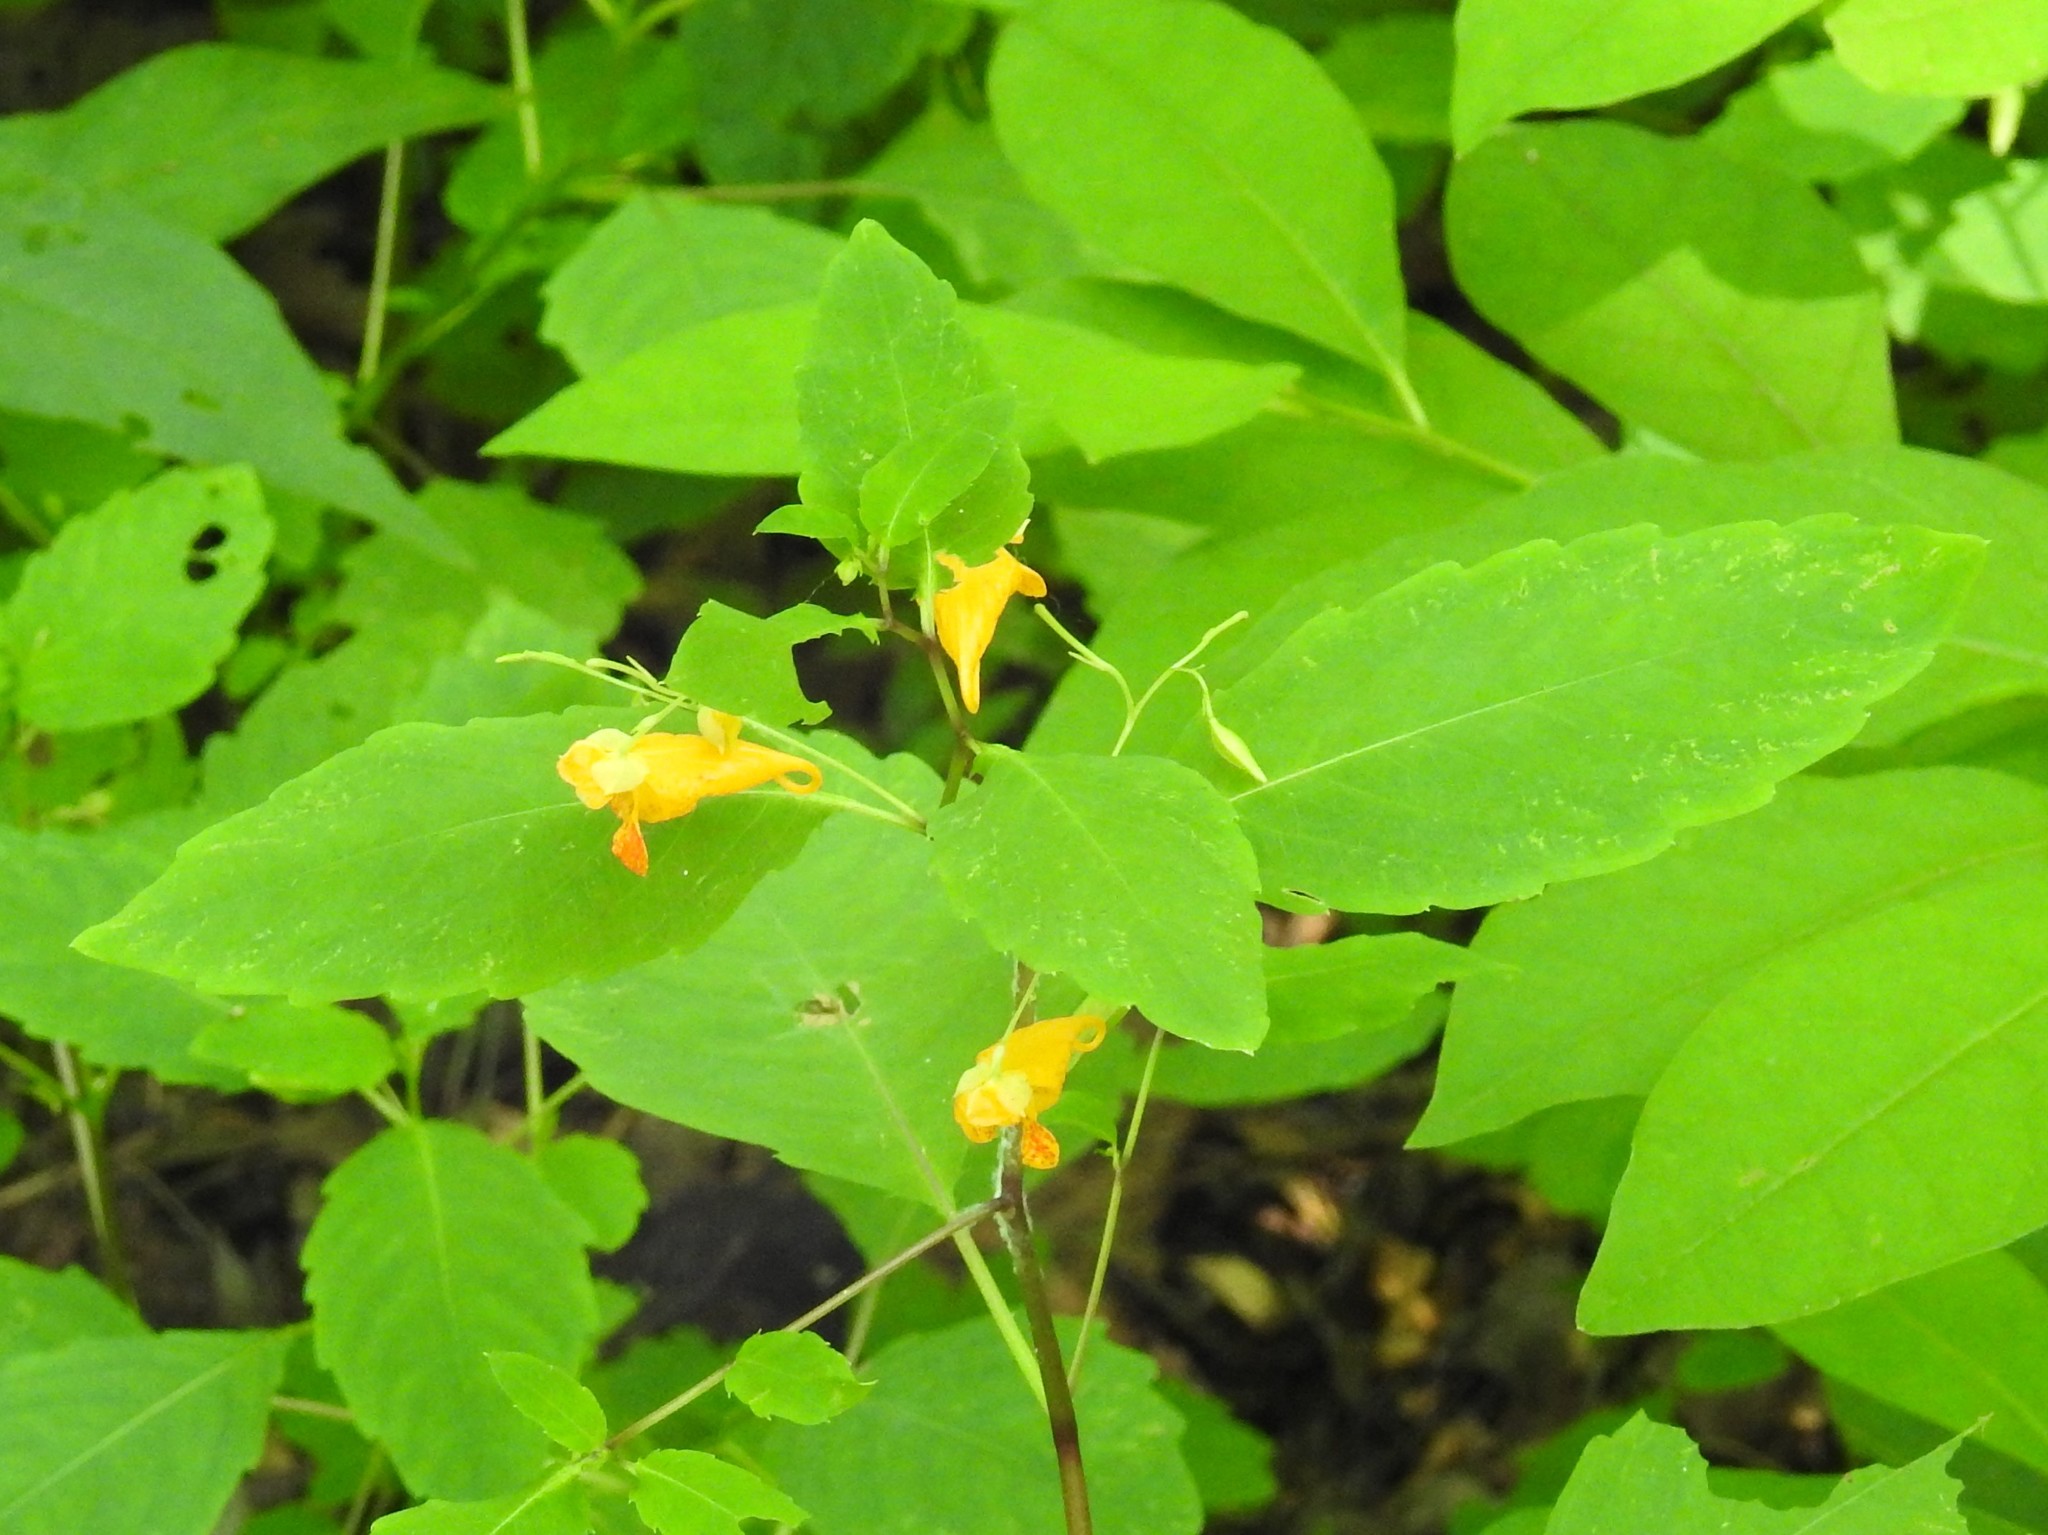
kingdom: Plantae
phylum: Tracheophyta
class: Magnoliopsida
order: Ericales
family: Balsaminaceae
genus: Impatiens
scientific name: Impatiens capensis
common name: Orange balsam
